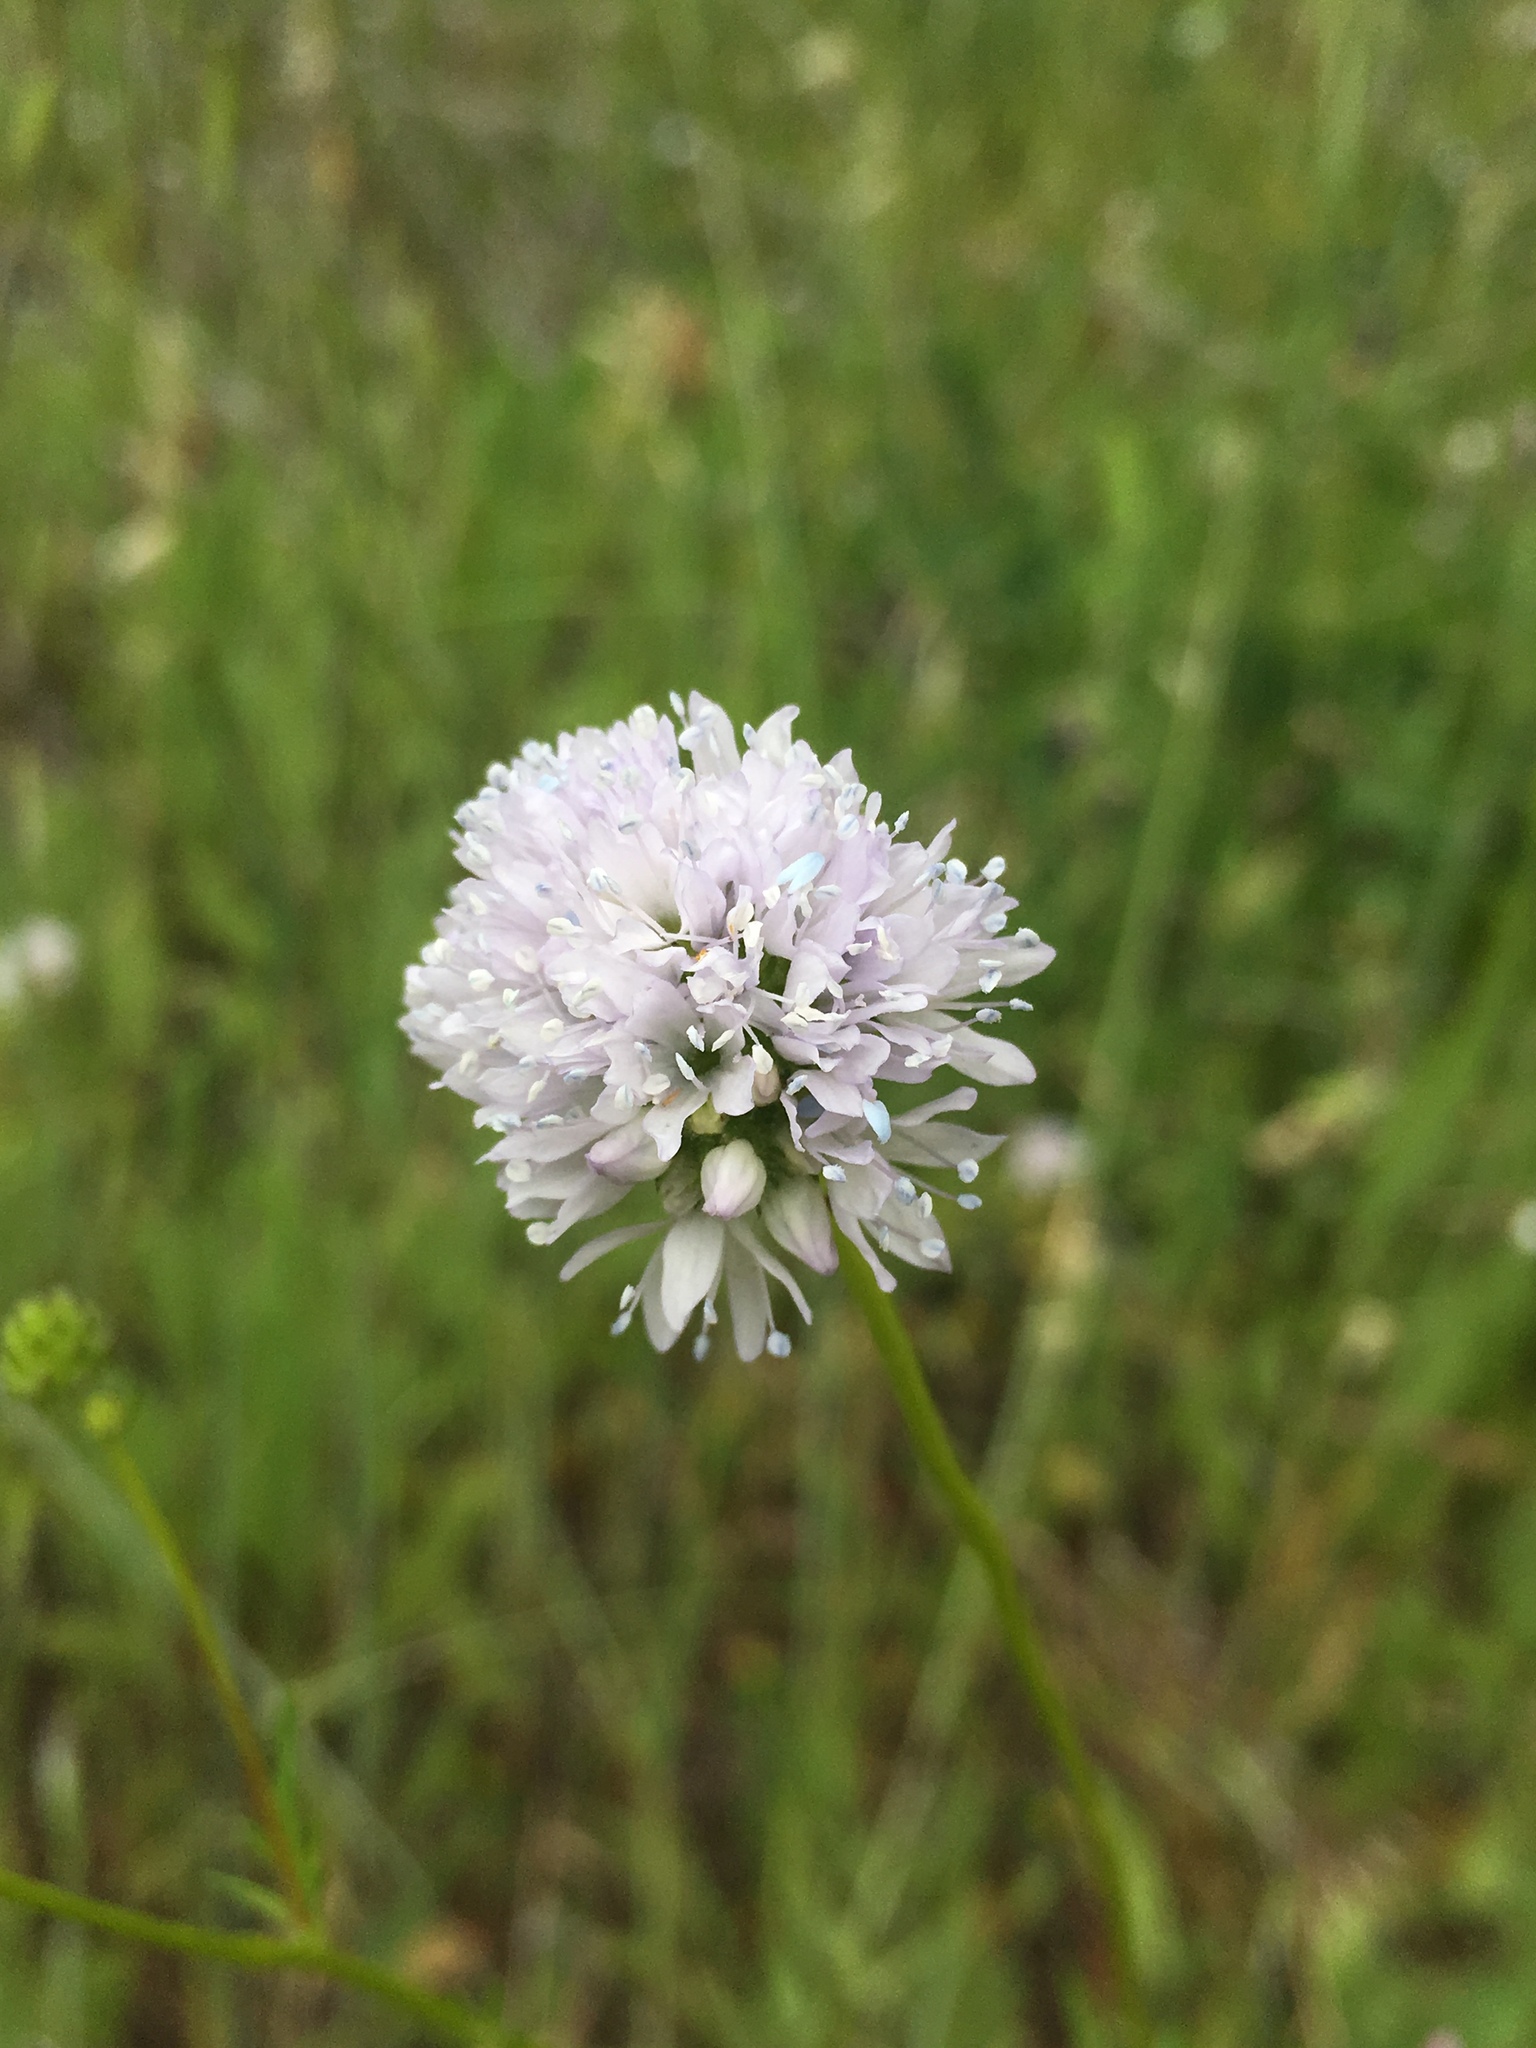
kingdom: Plantae
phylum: Tracheophyta
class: Magnoliopsida
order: Ericales
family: Polemoniaceae
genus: Gilia
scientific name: Gilia capitata
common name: Bluehead gilia
